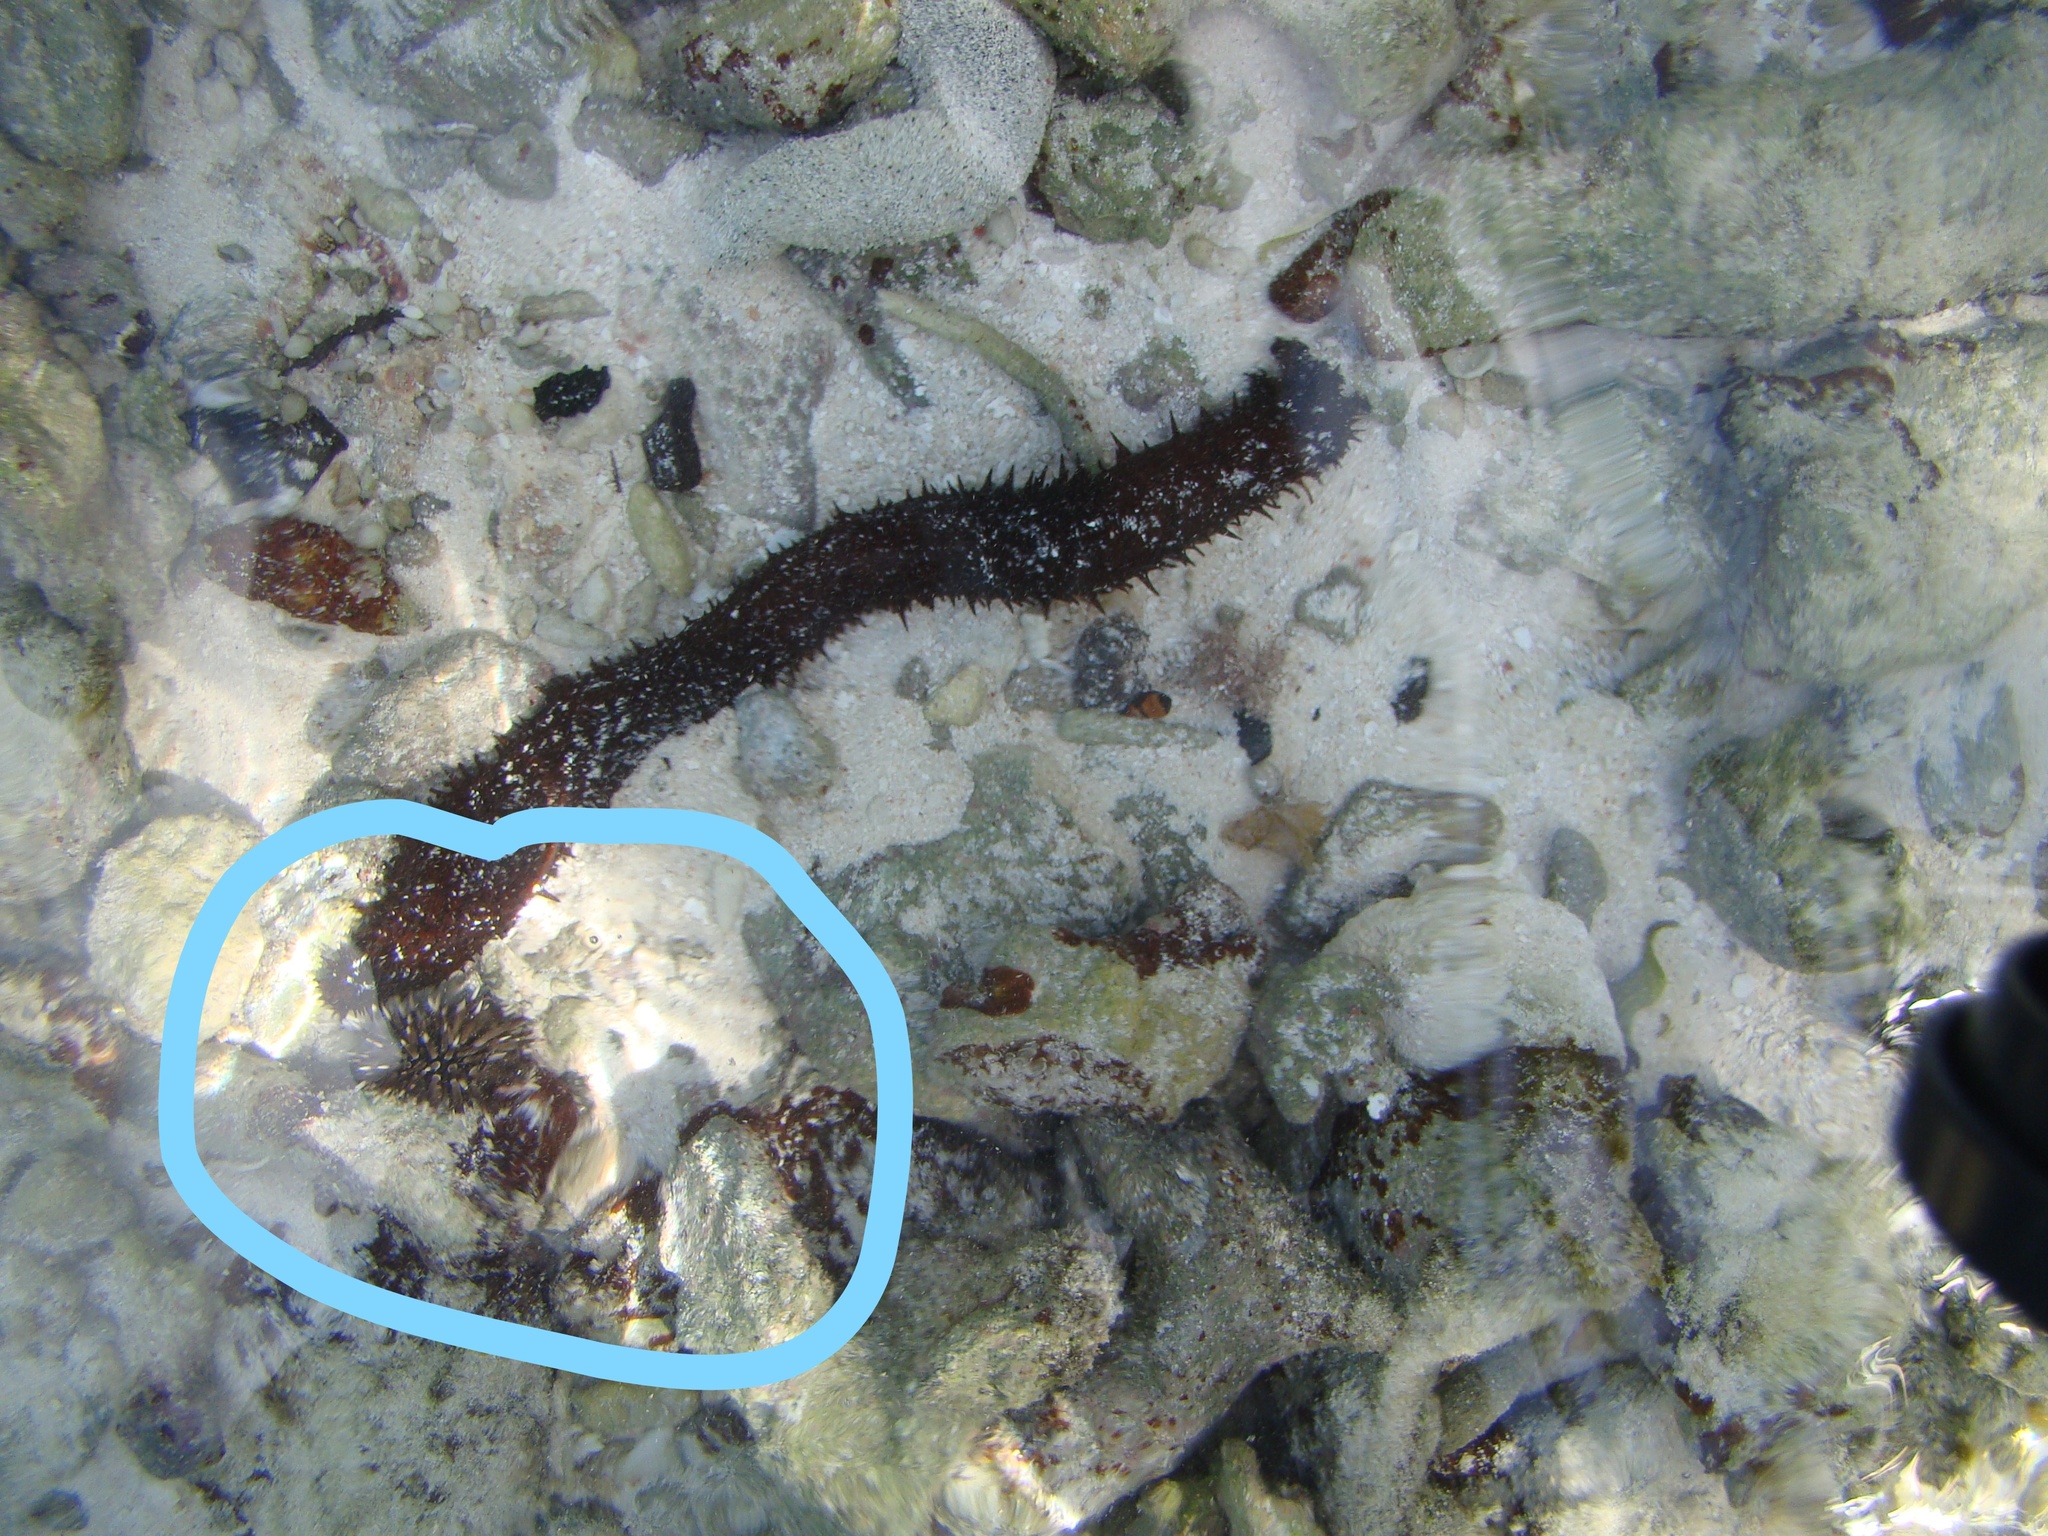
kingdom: Animalia
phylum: Echinodermata
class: Echinoidea
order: Camarodonta
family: Echinometridae
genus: Echinometra
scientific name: Echinometra mathaei
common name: Rock-boring urchin
